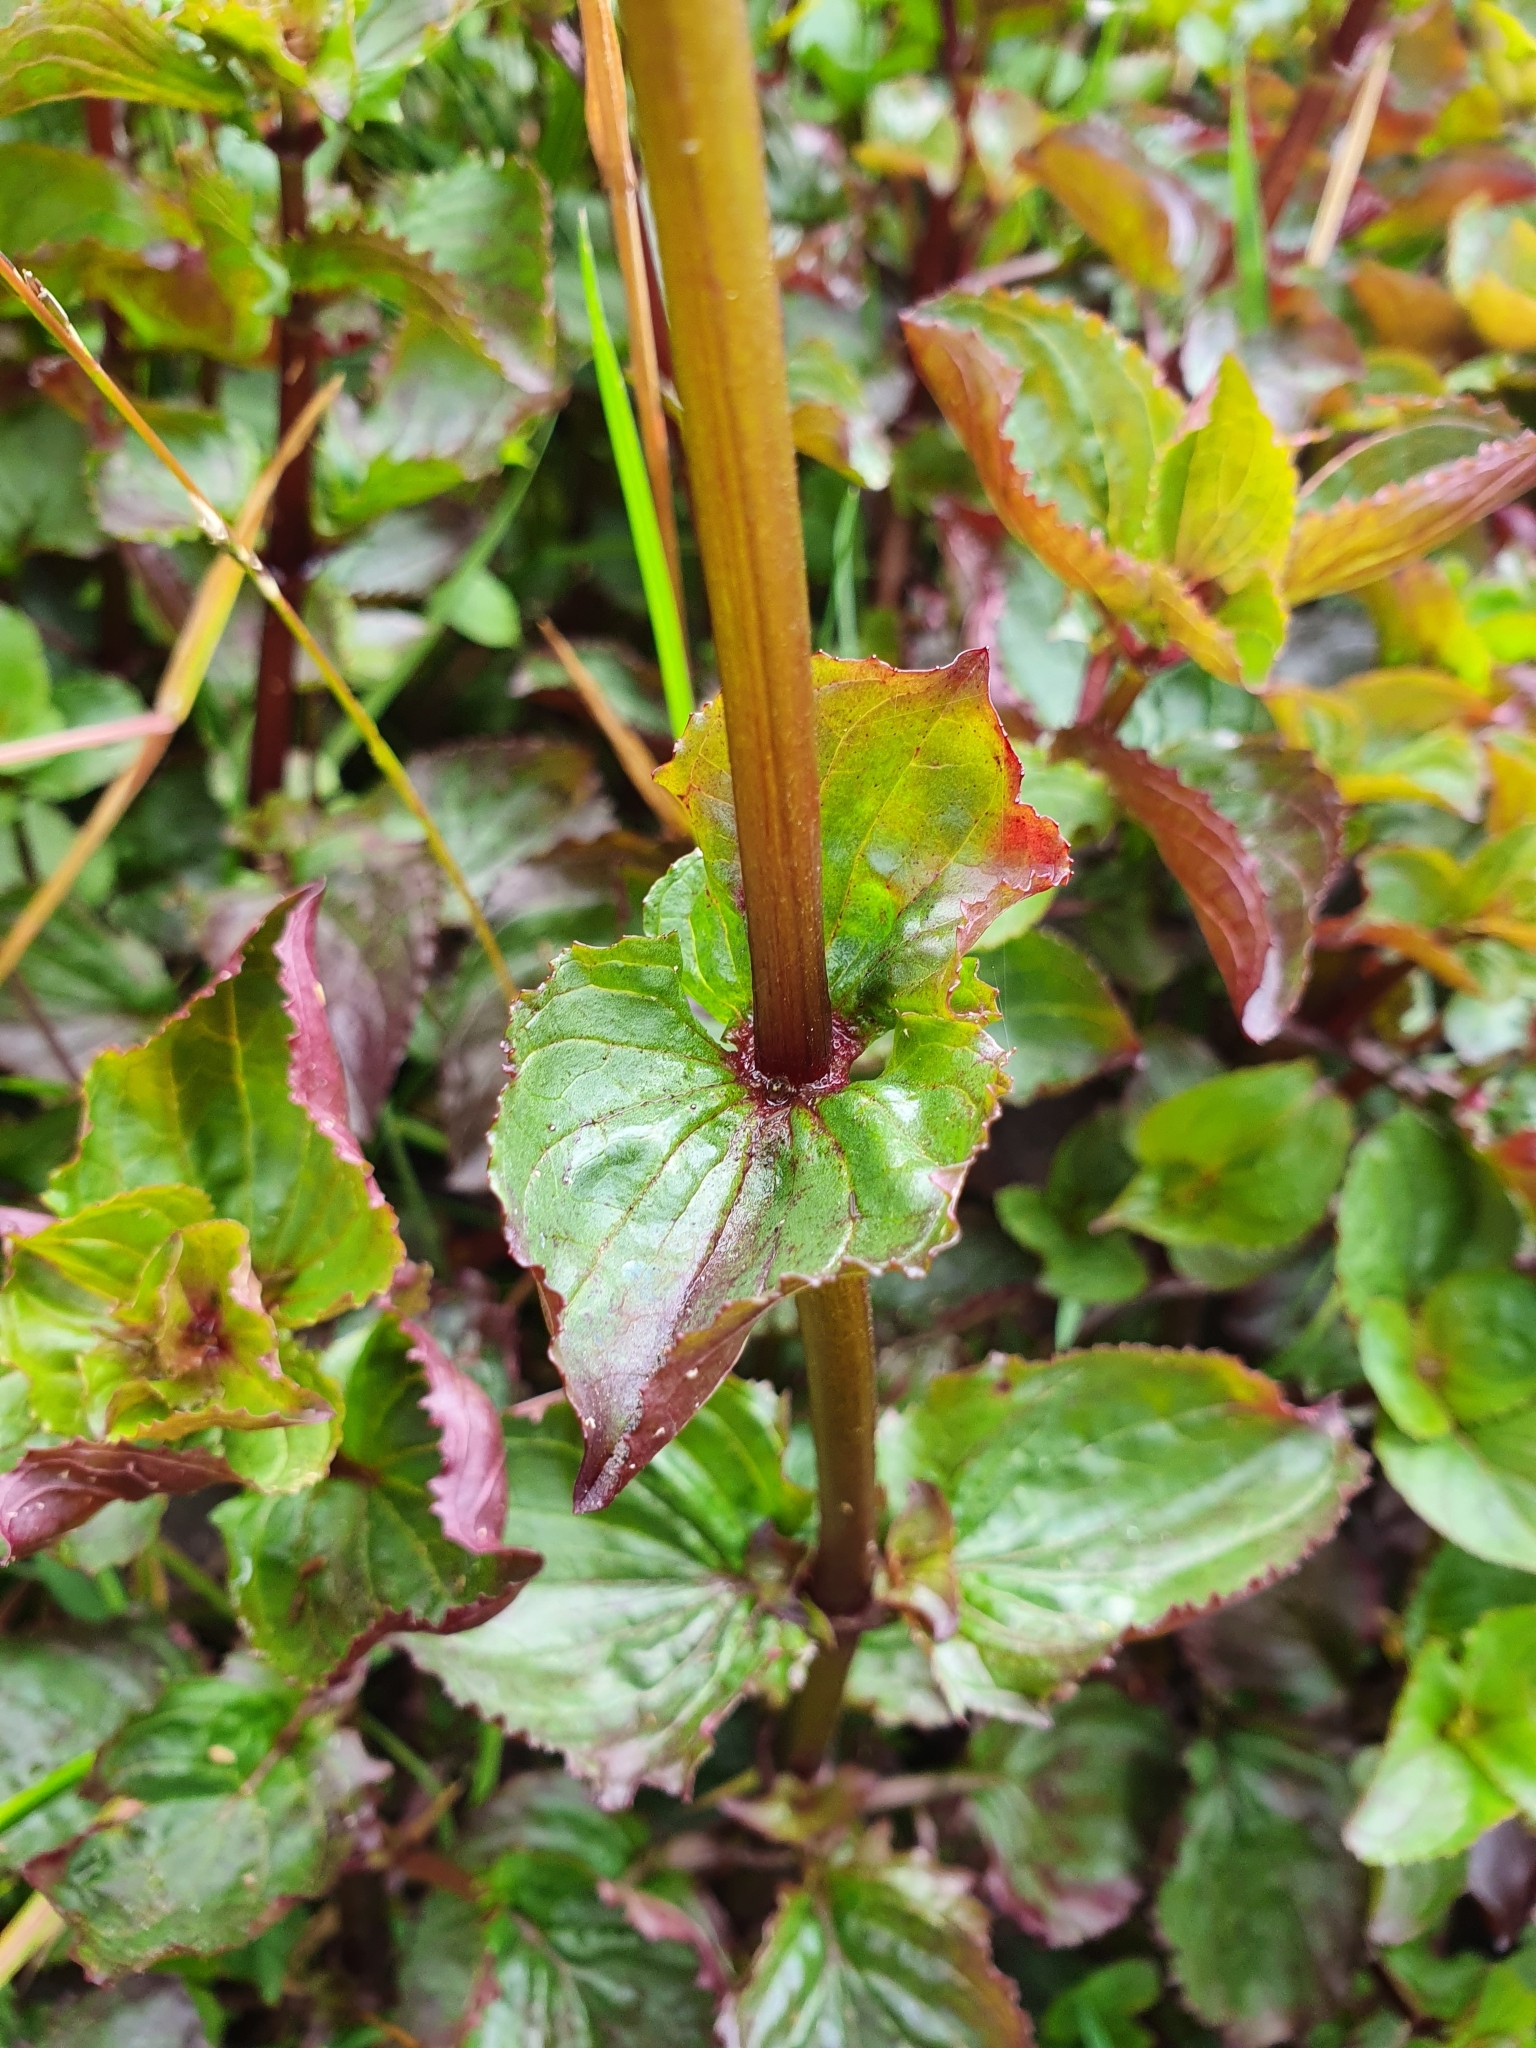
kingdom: Plantae
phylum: Tracheophyta
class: Magnoliopsida
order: Lamiales
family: Phrymaceae
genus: Erythranthe
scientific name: Erythranthe guttata
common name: Monkeyflower
